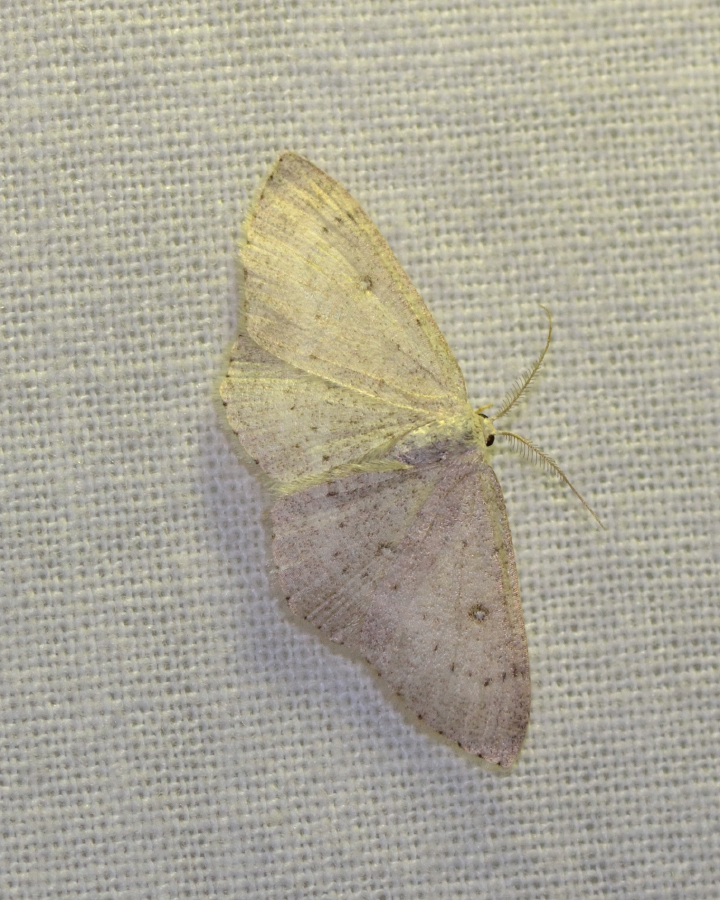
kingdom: Animalia
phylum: Arthropoda
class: Insecta
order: Lepidoptera
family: Geometridae
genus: Cyclophora
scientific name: Cyclophora albipunctata
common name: Birch mocha
